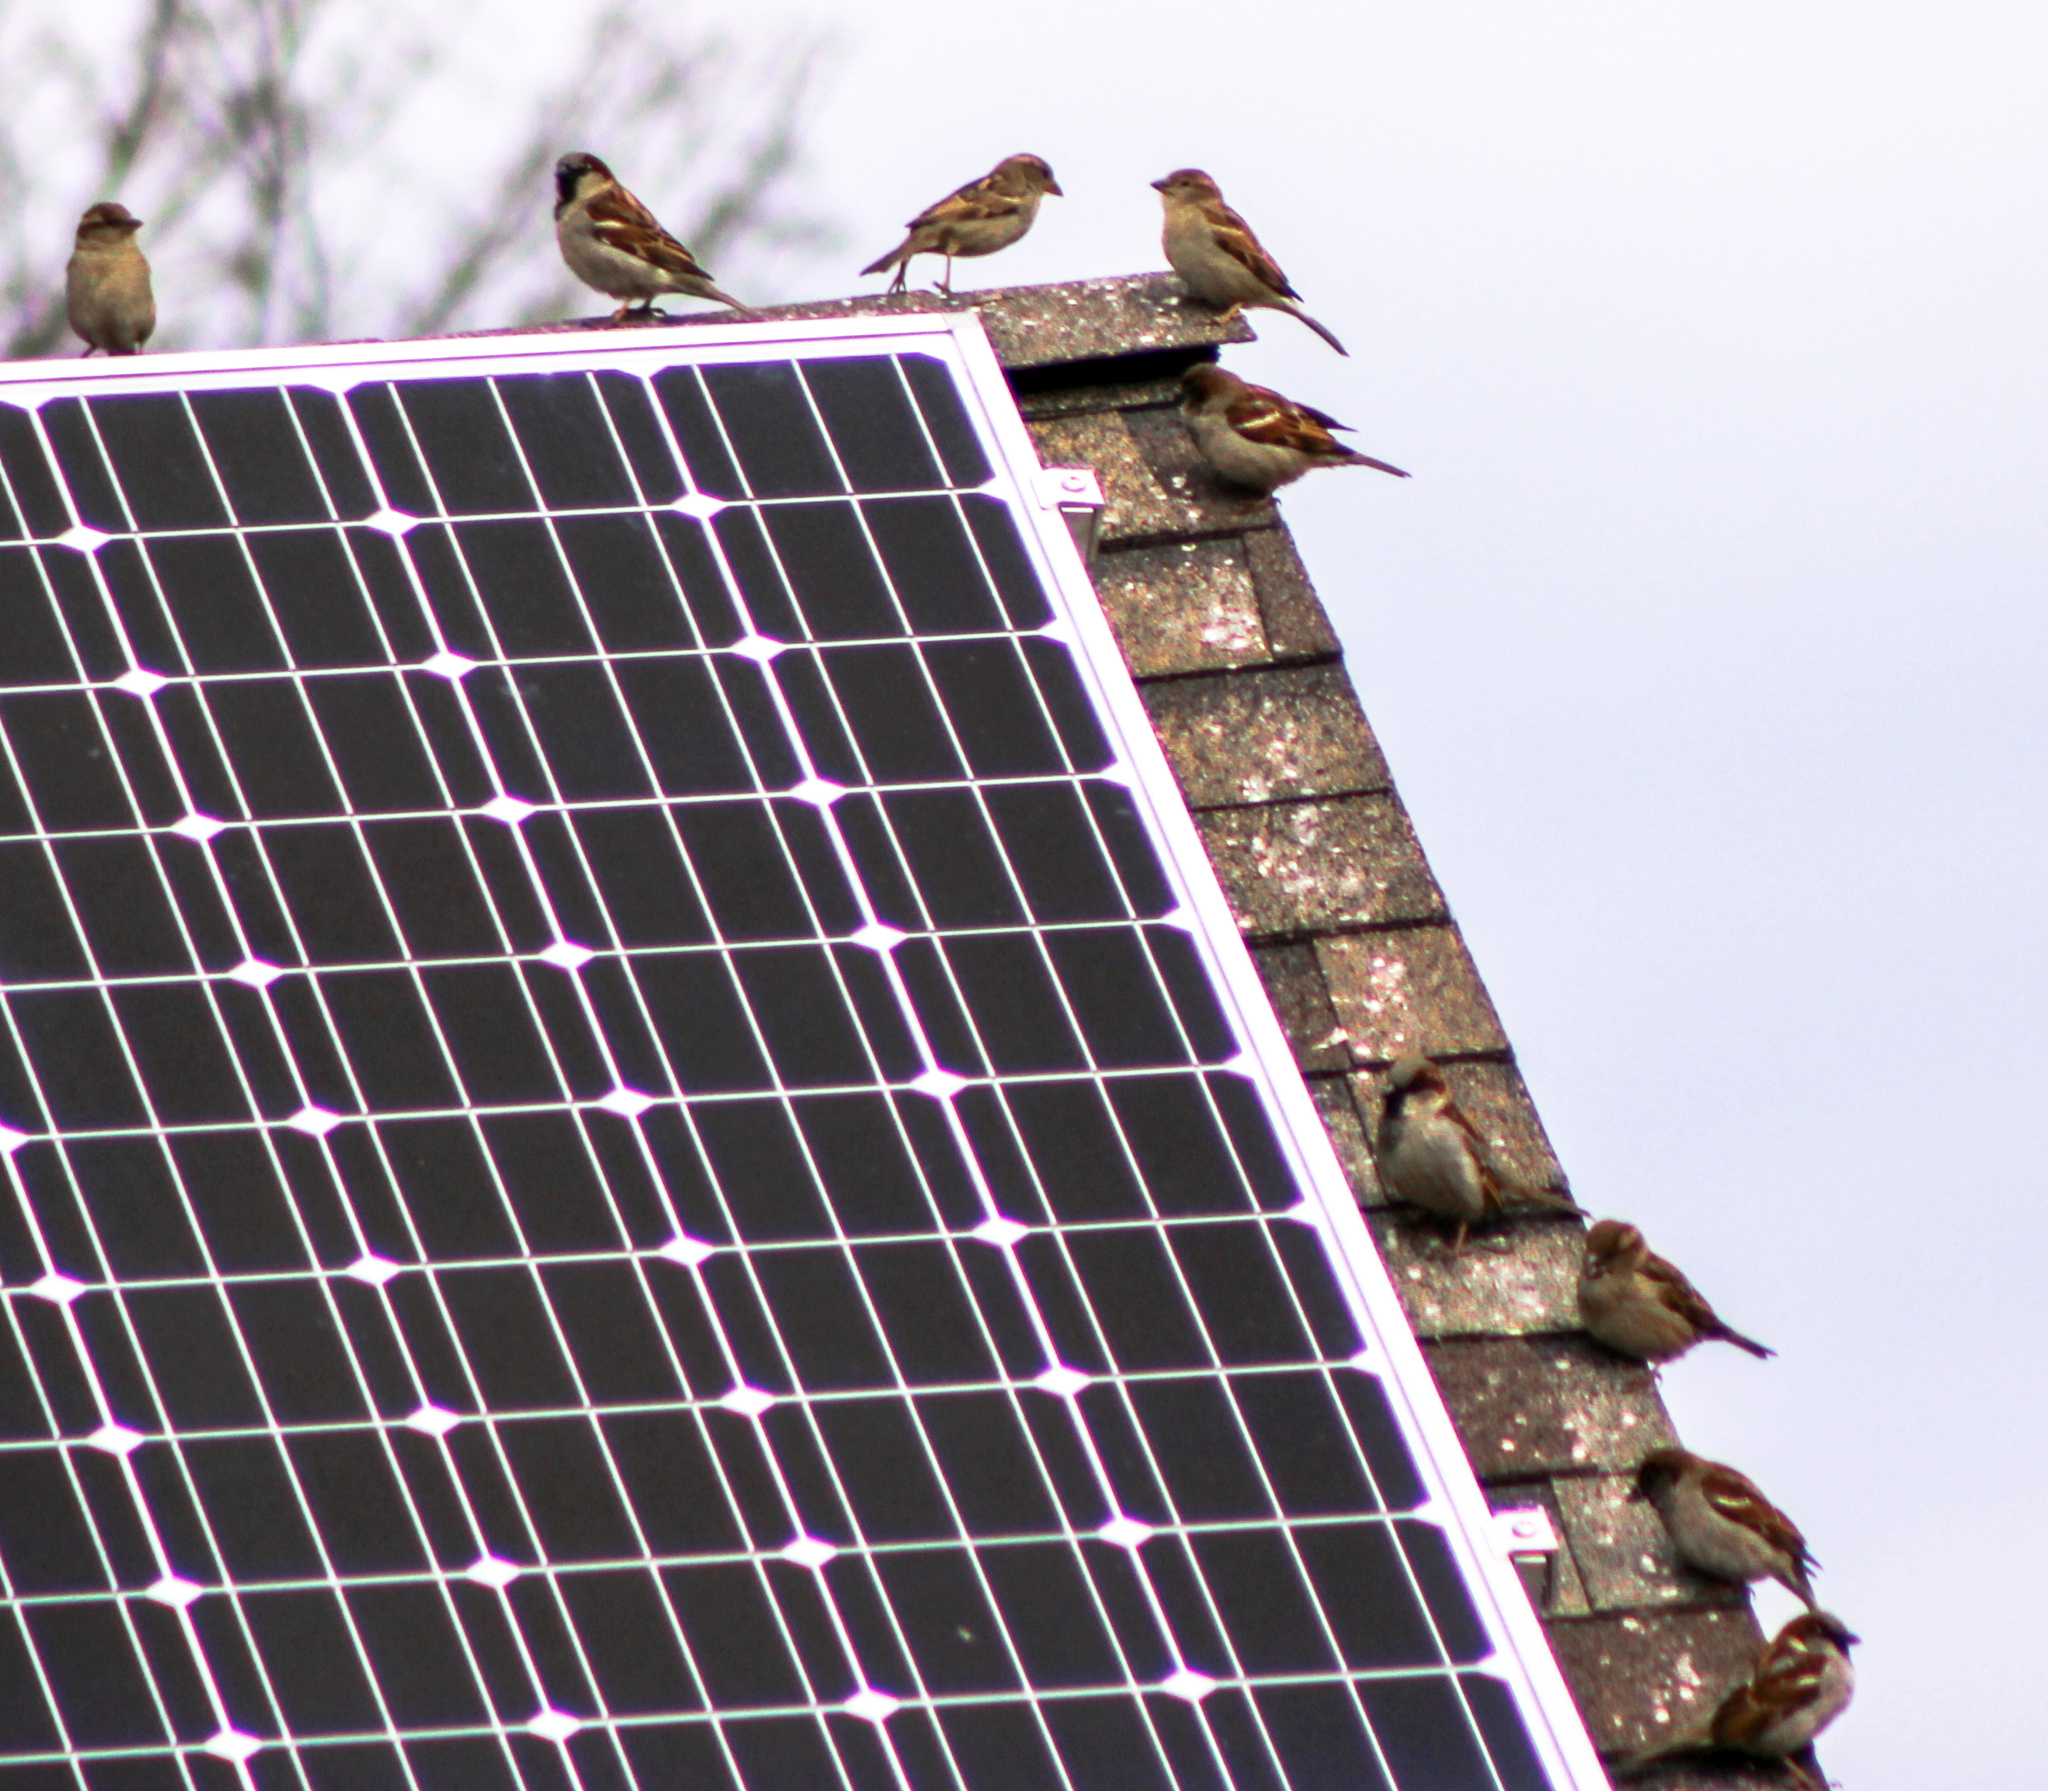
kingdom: Animalia
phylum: Chordata
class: Aves
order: Passeriformes
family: Passeridae
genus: Passer
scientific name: Passer domesticus
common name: House sparrow
